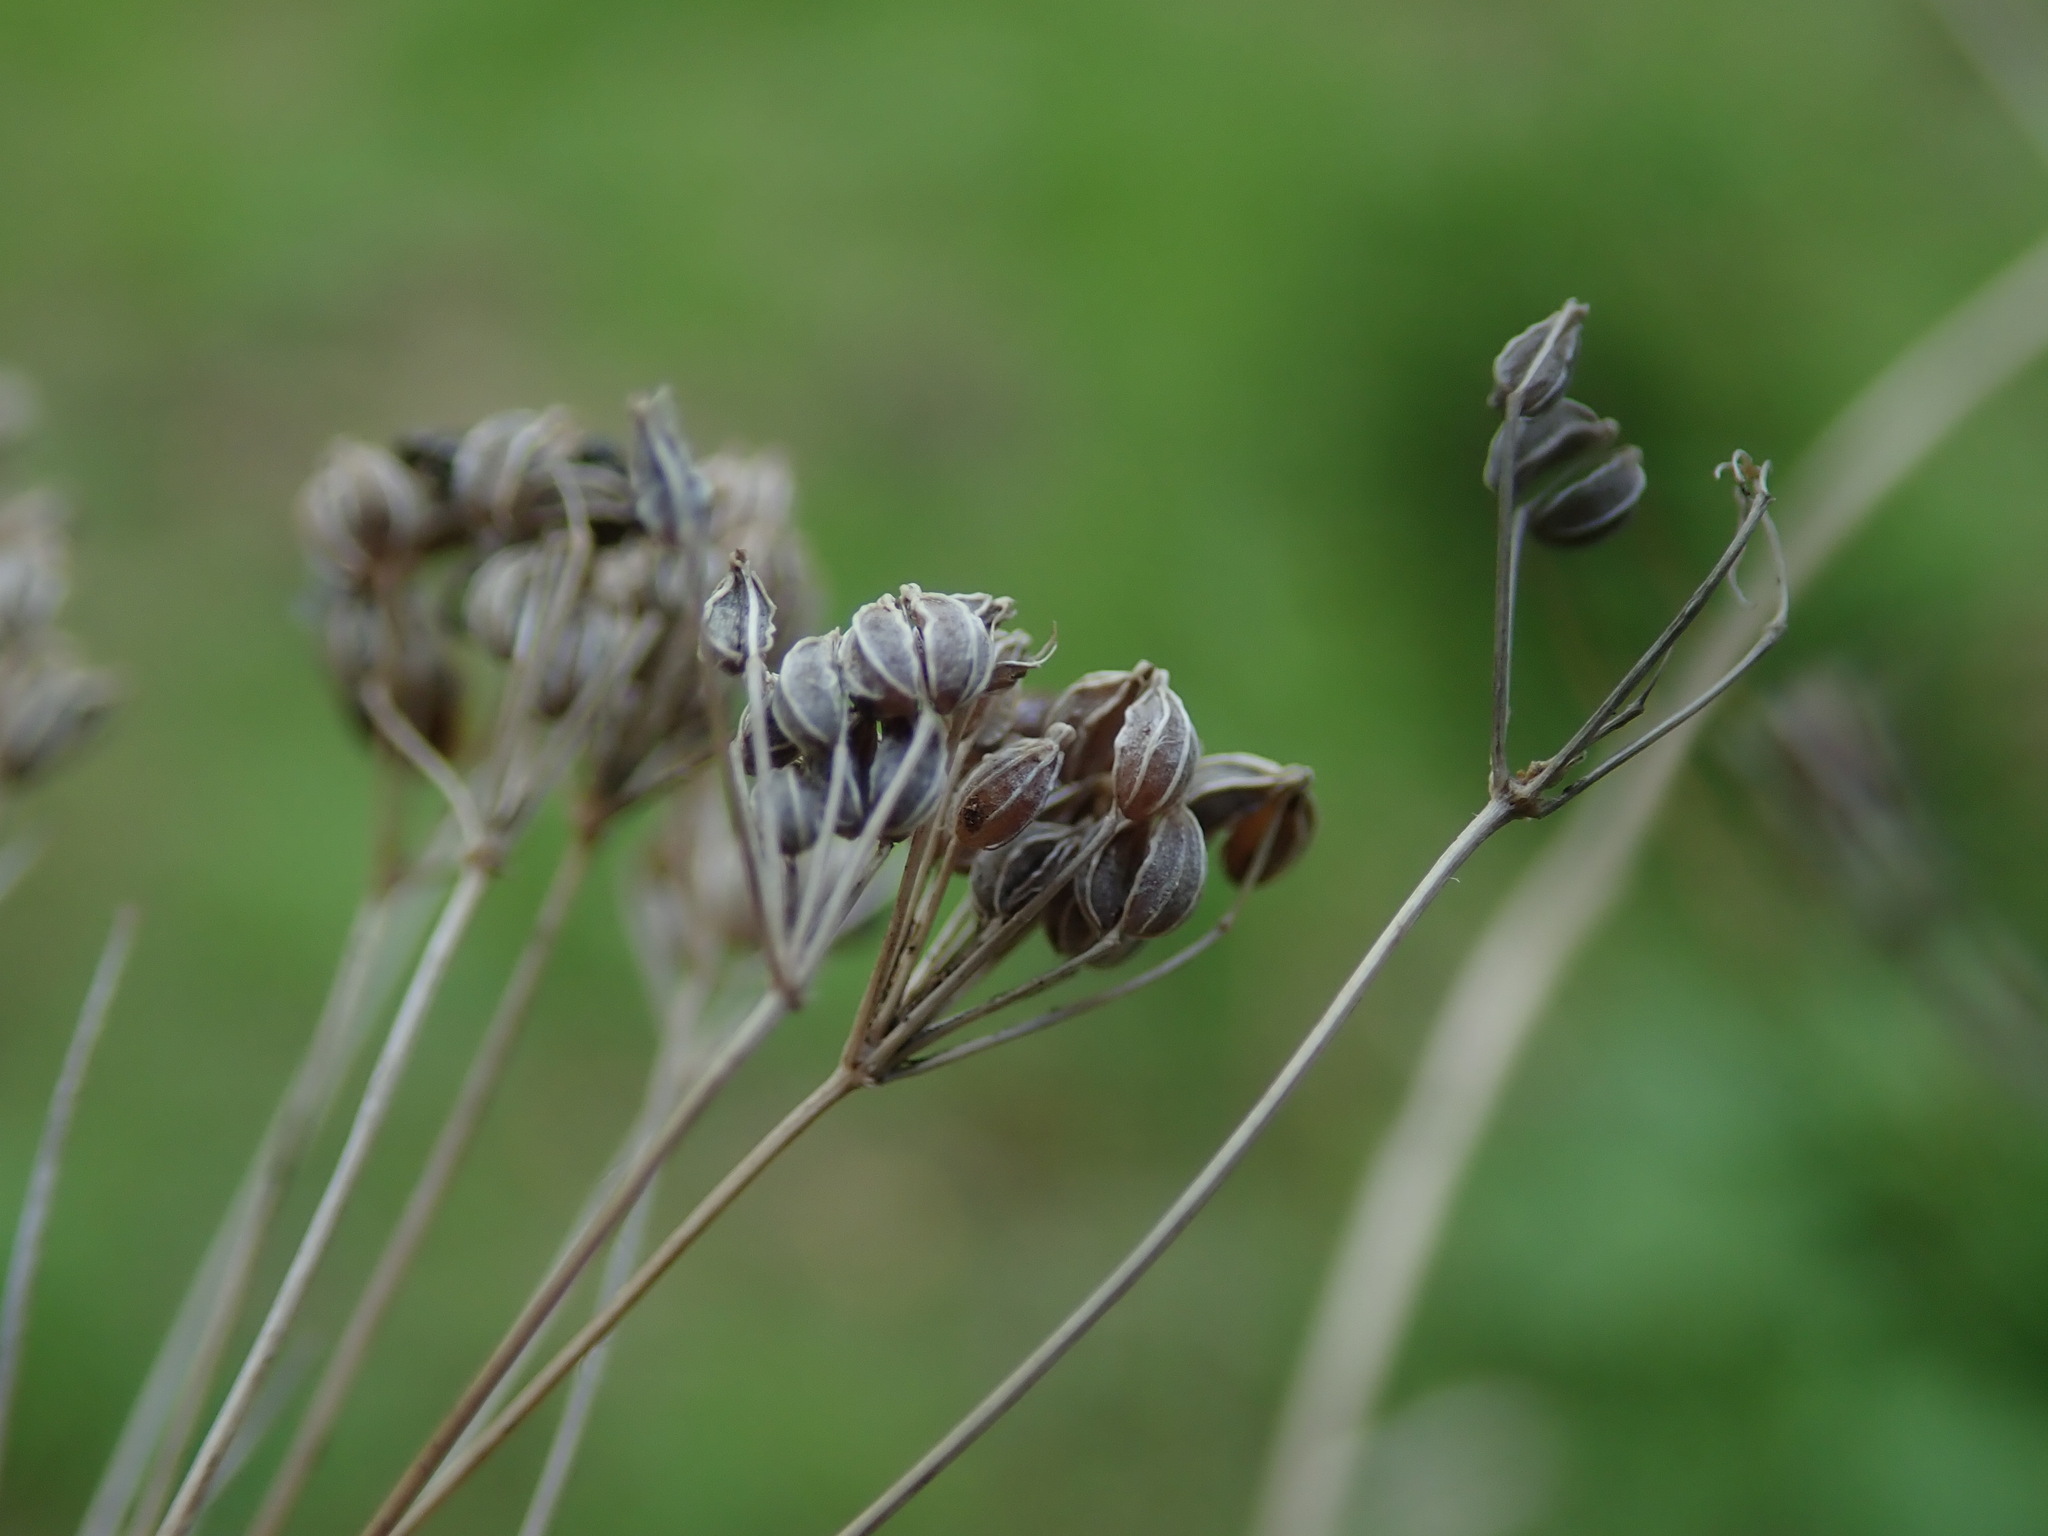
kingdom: Plantae
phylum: Tracheophyta
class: Magnoliopsida
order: Apiales
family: Apiaceae
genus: Conium
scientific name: Conium maculatum
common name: Hemlock
